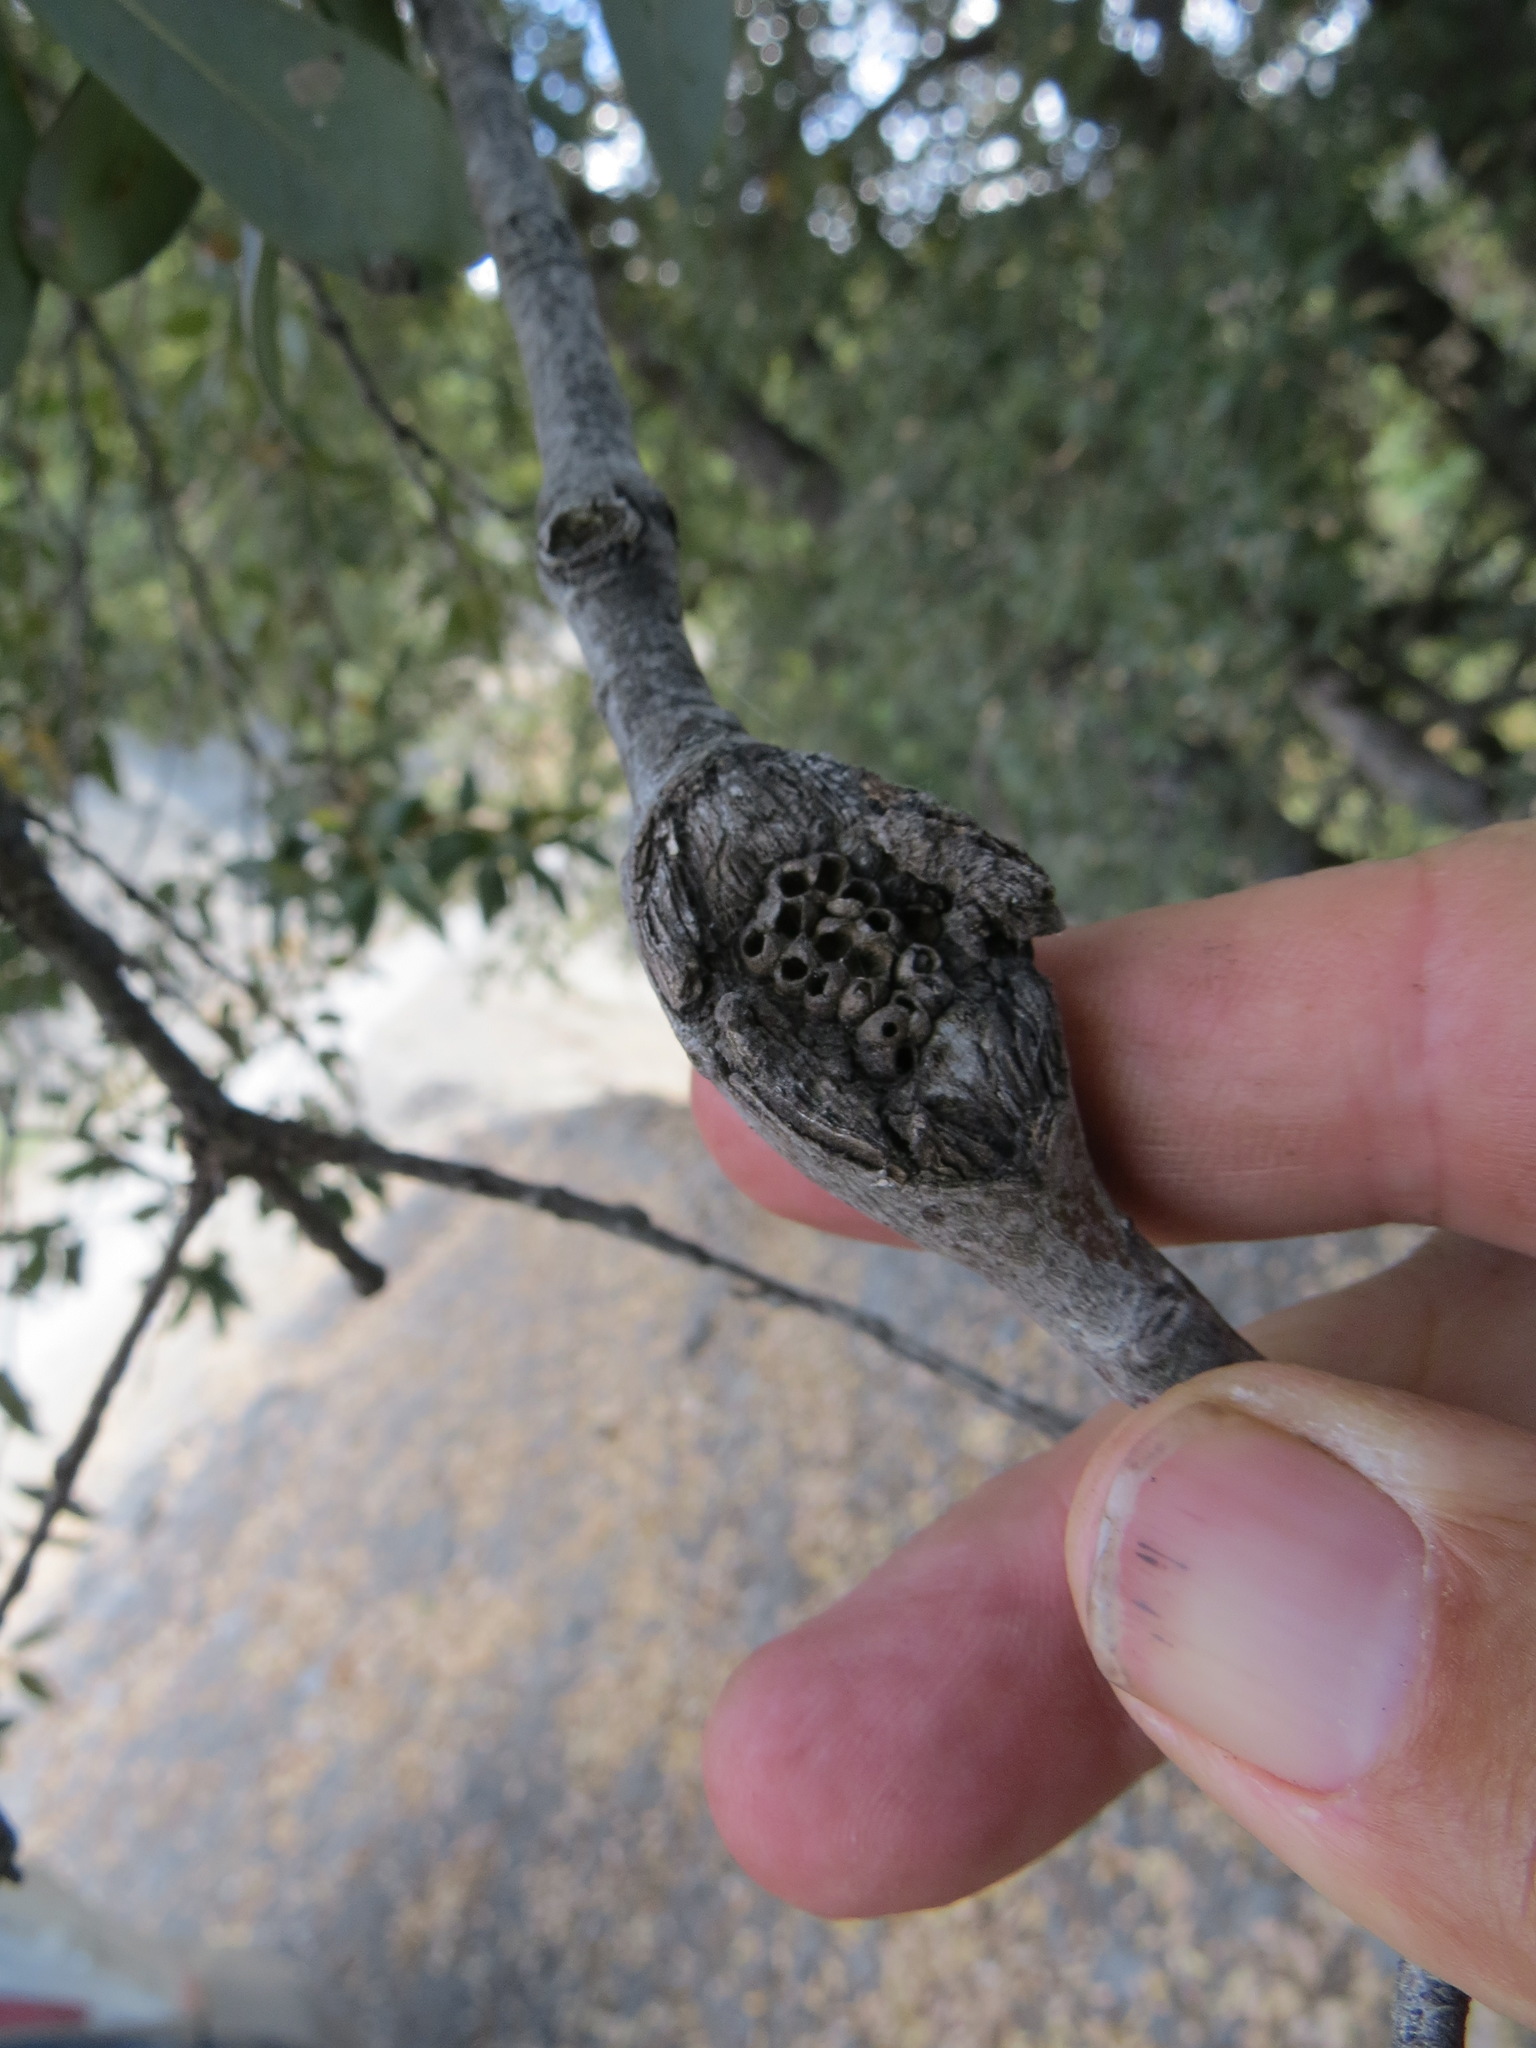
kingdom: Animalia
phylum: Arthropoda
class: Insecta
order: Hymenoptera
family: Cynipidae
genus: Dryocosmus
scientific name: Dryocosmus
